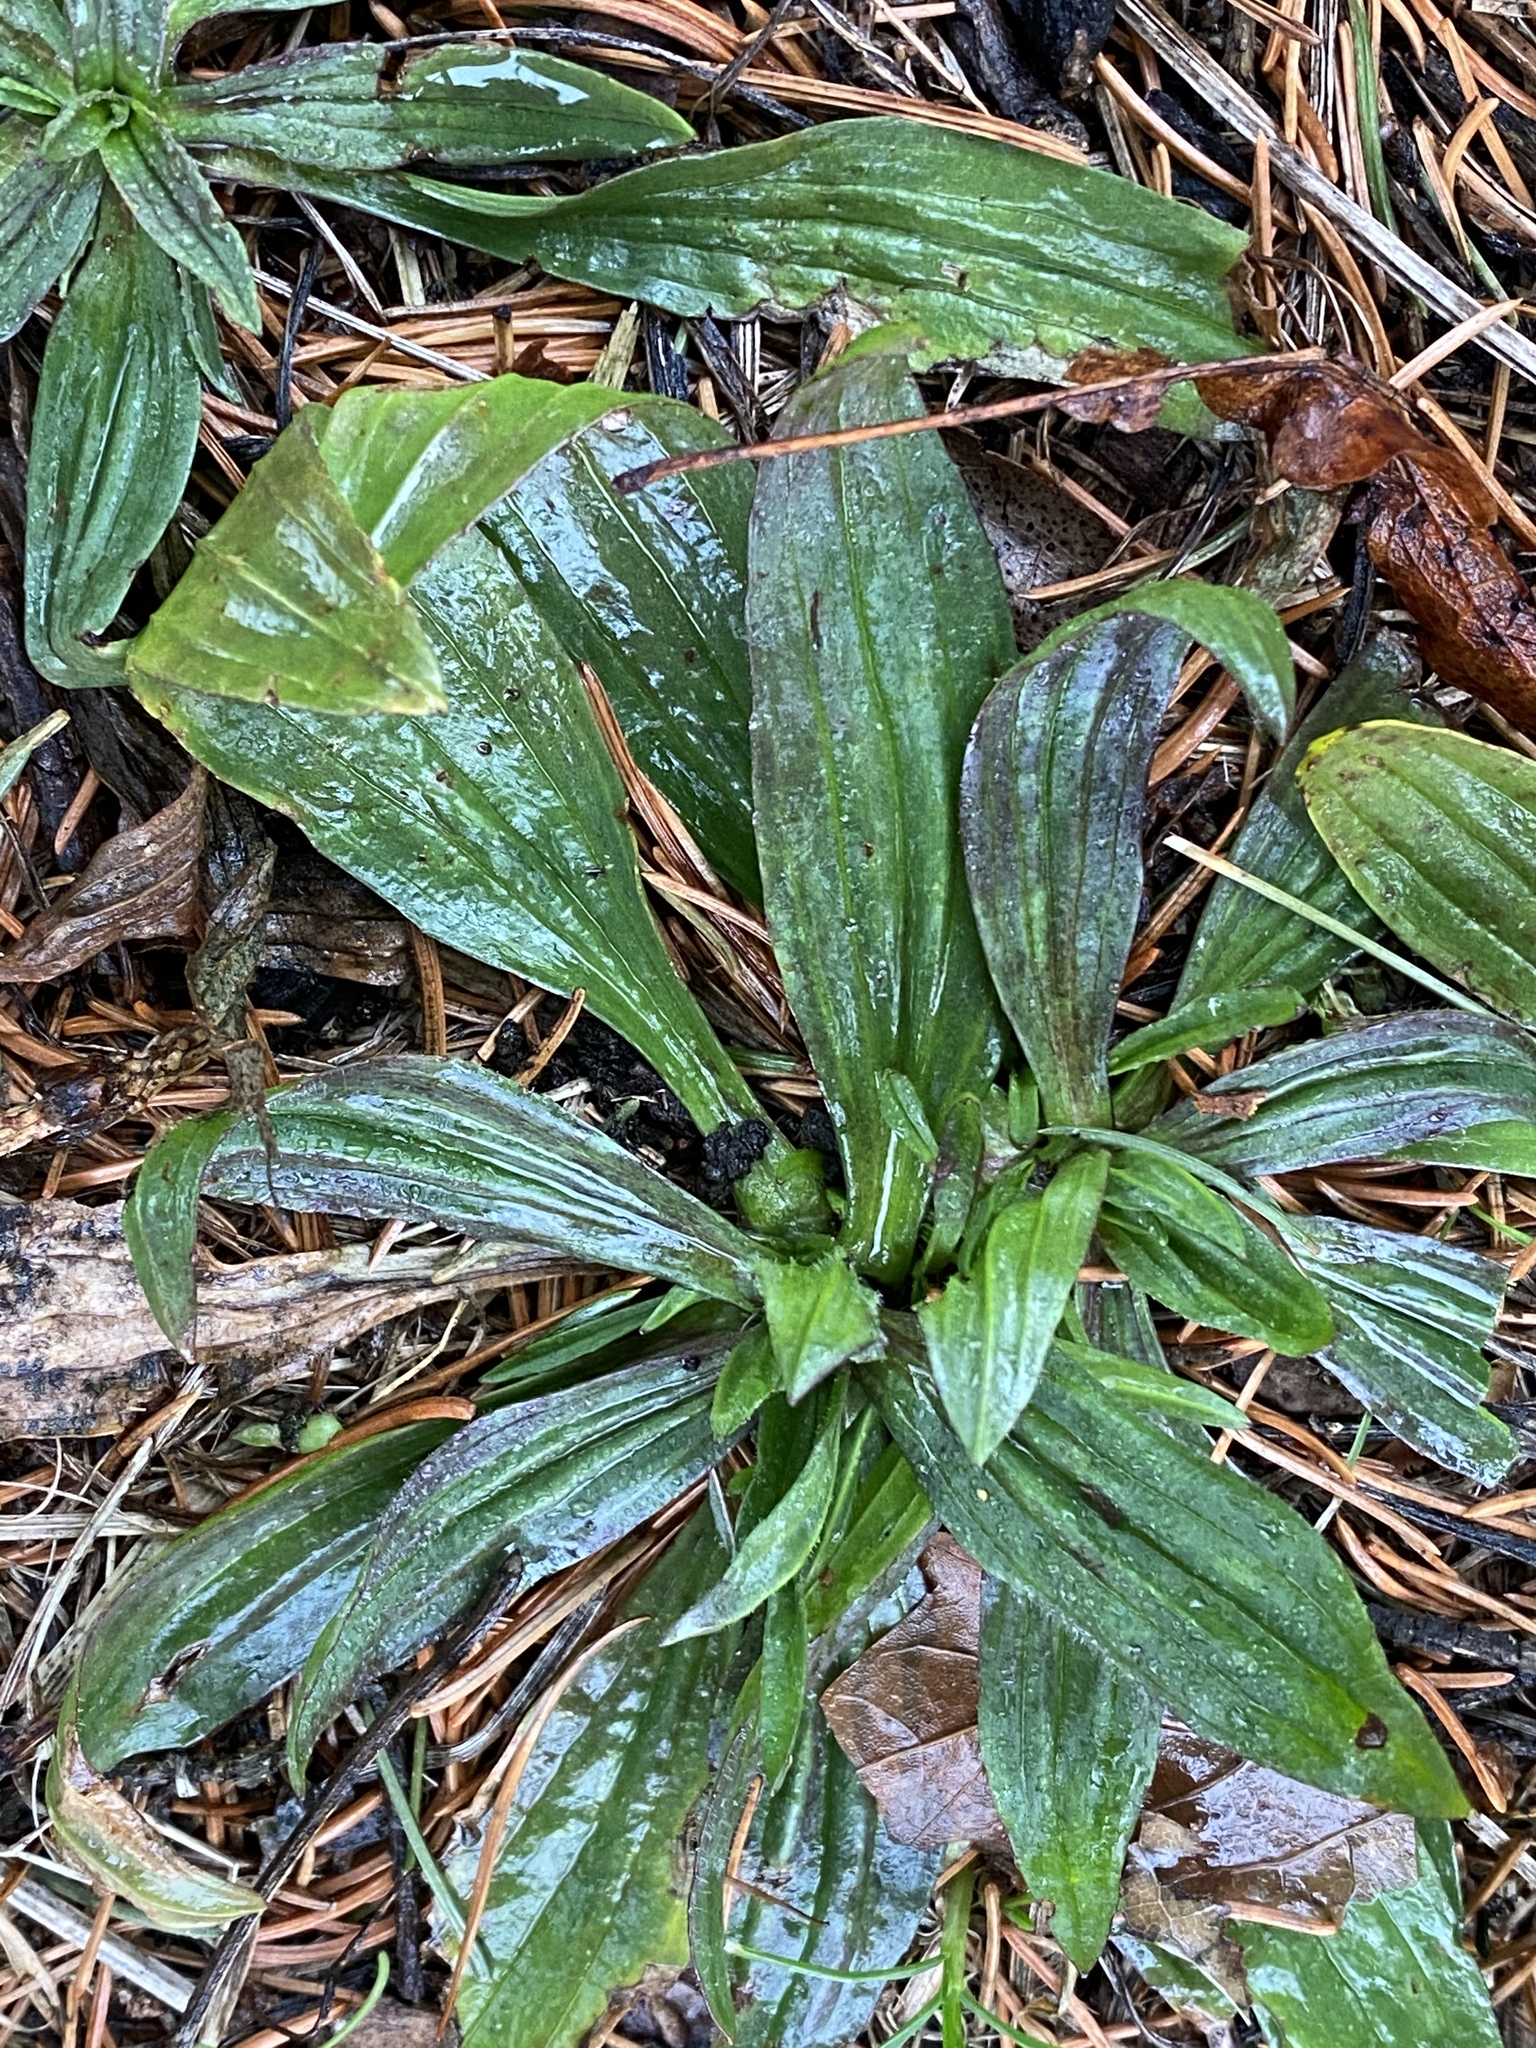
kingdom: Plantae
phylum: Tracheophyta
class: Magnoliopsida
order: Lamiales
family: Plantaginaceae
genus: Plantago
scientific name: Plantago lanceolata
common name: Ribwort plantain
